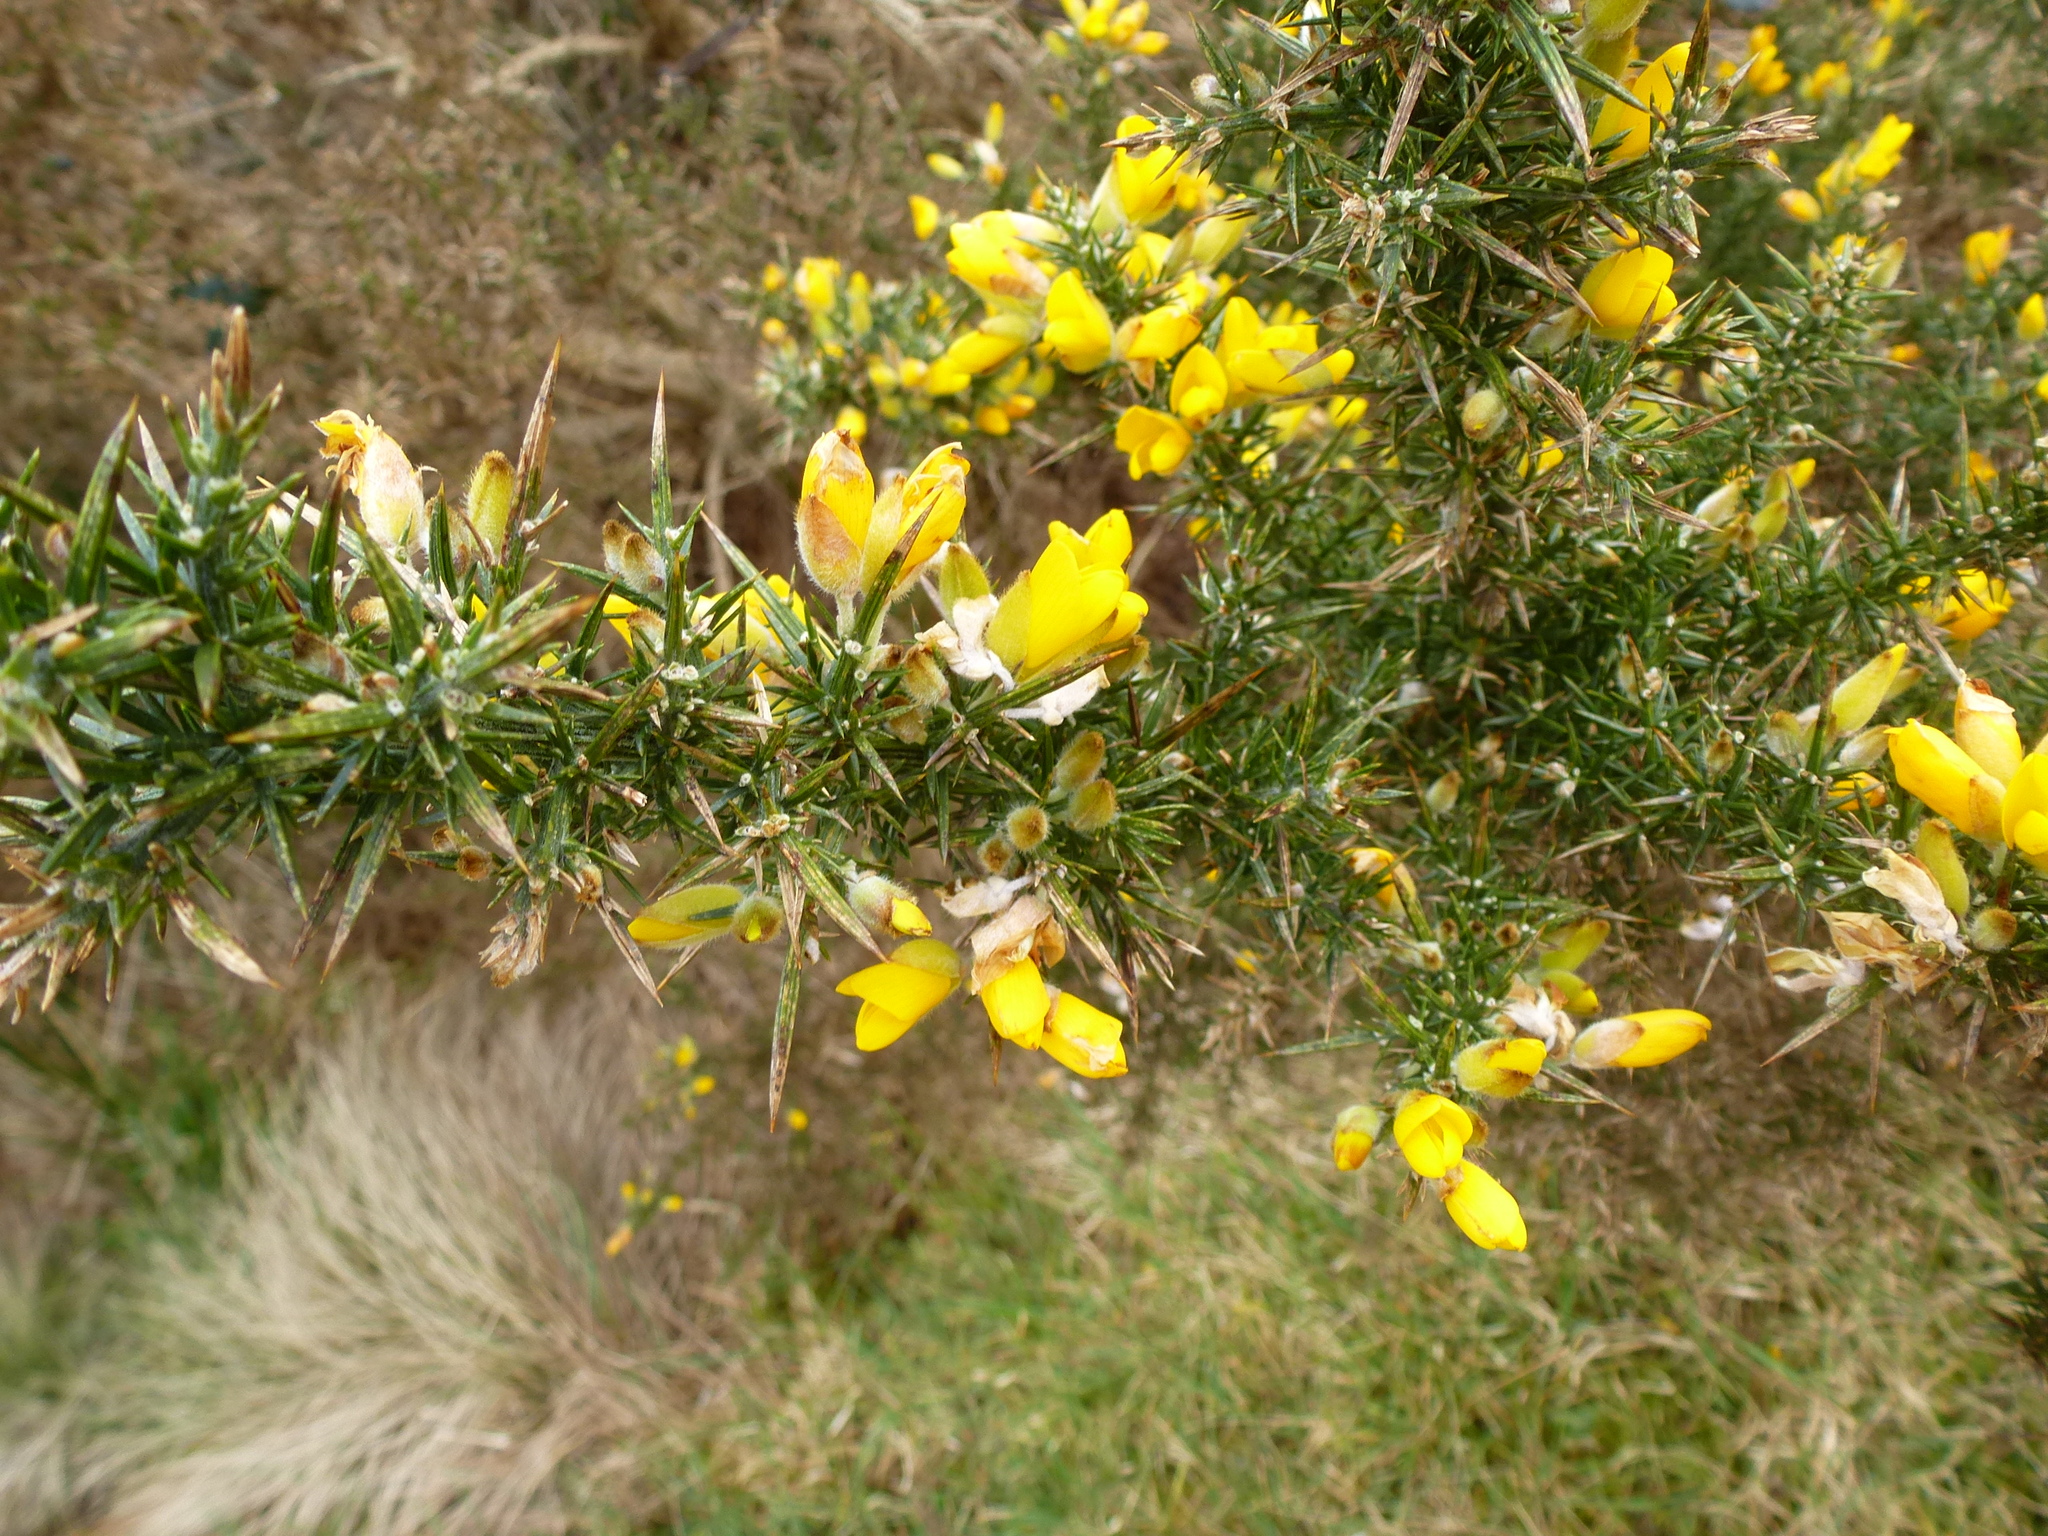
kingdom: Plantae
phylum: Tracheophyta
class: Magnoliopsida
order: Fabales
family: Fabaceae
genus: Ulex
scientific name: Ulex europaeus
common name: Common gorse
